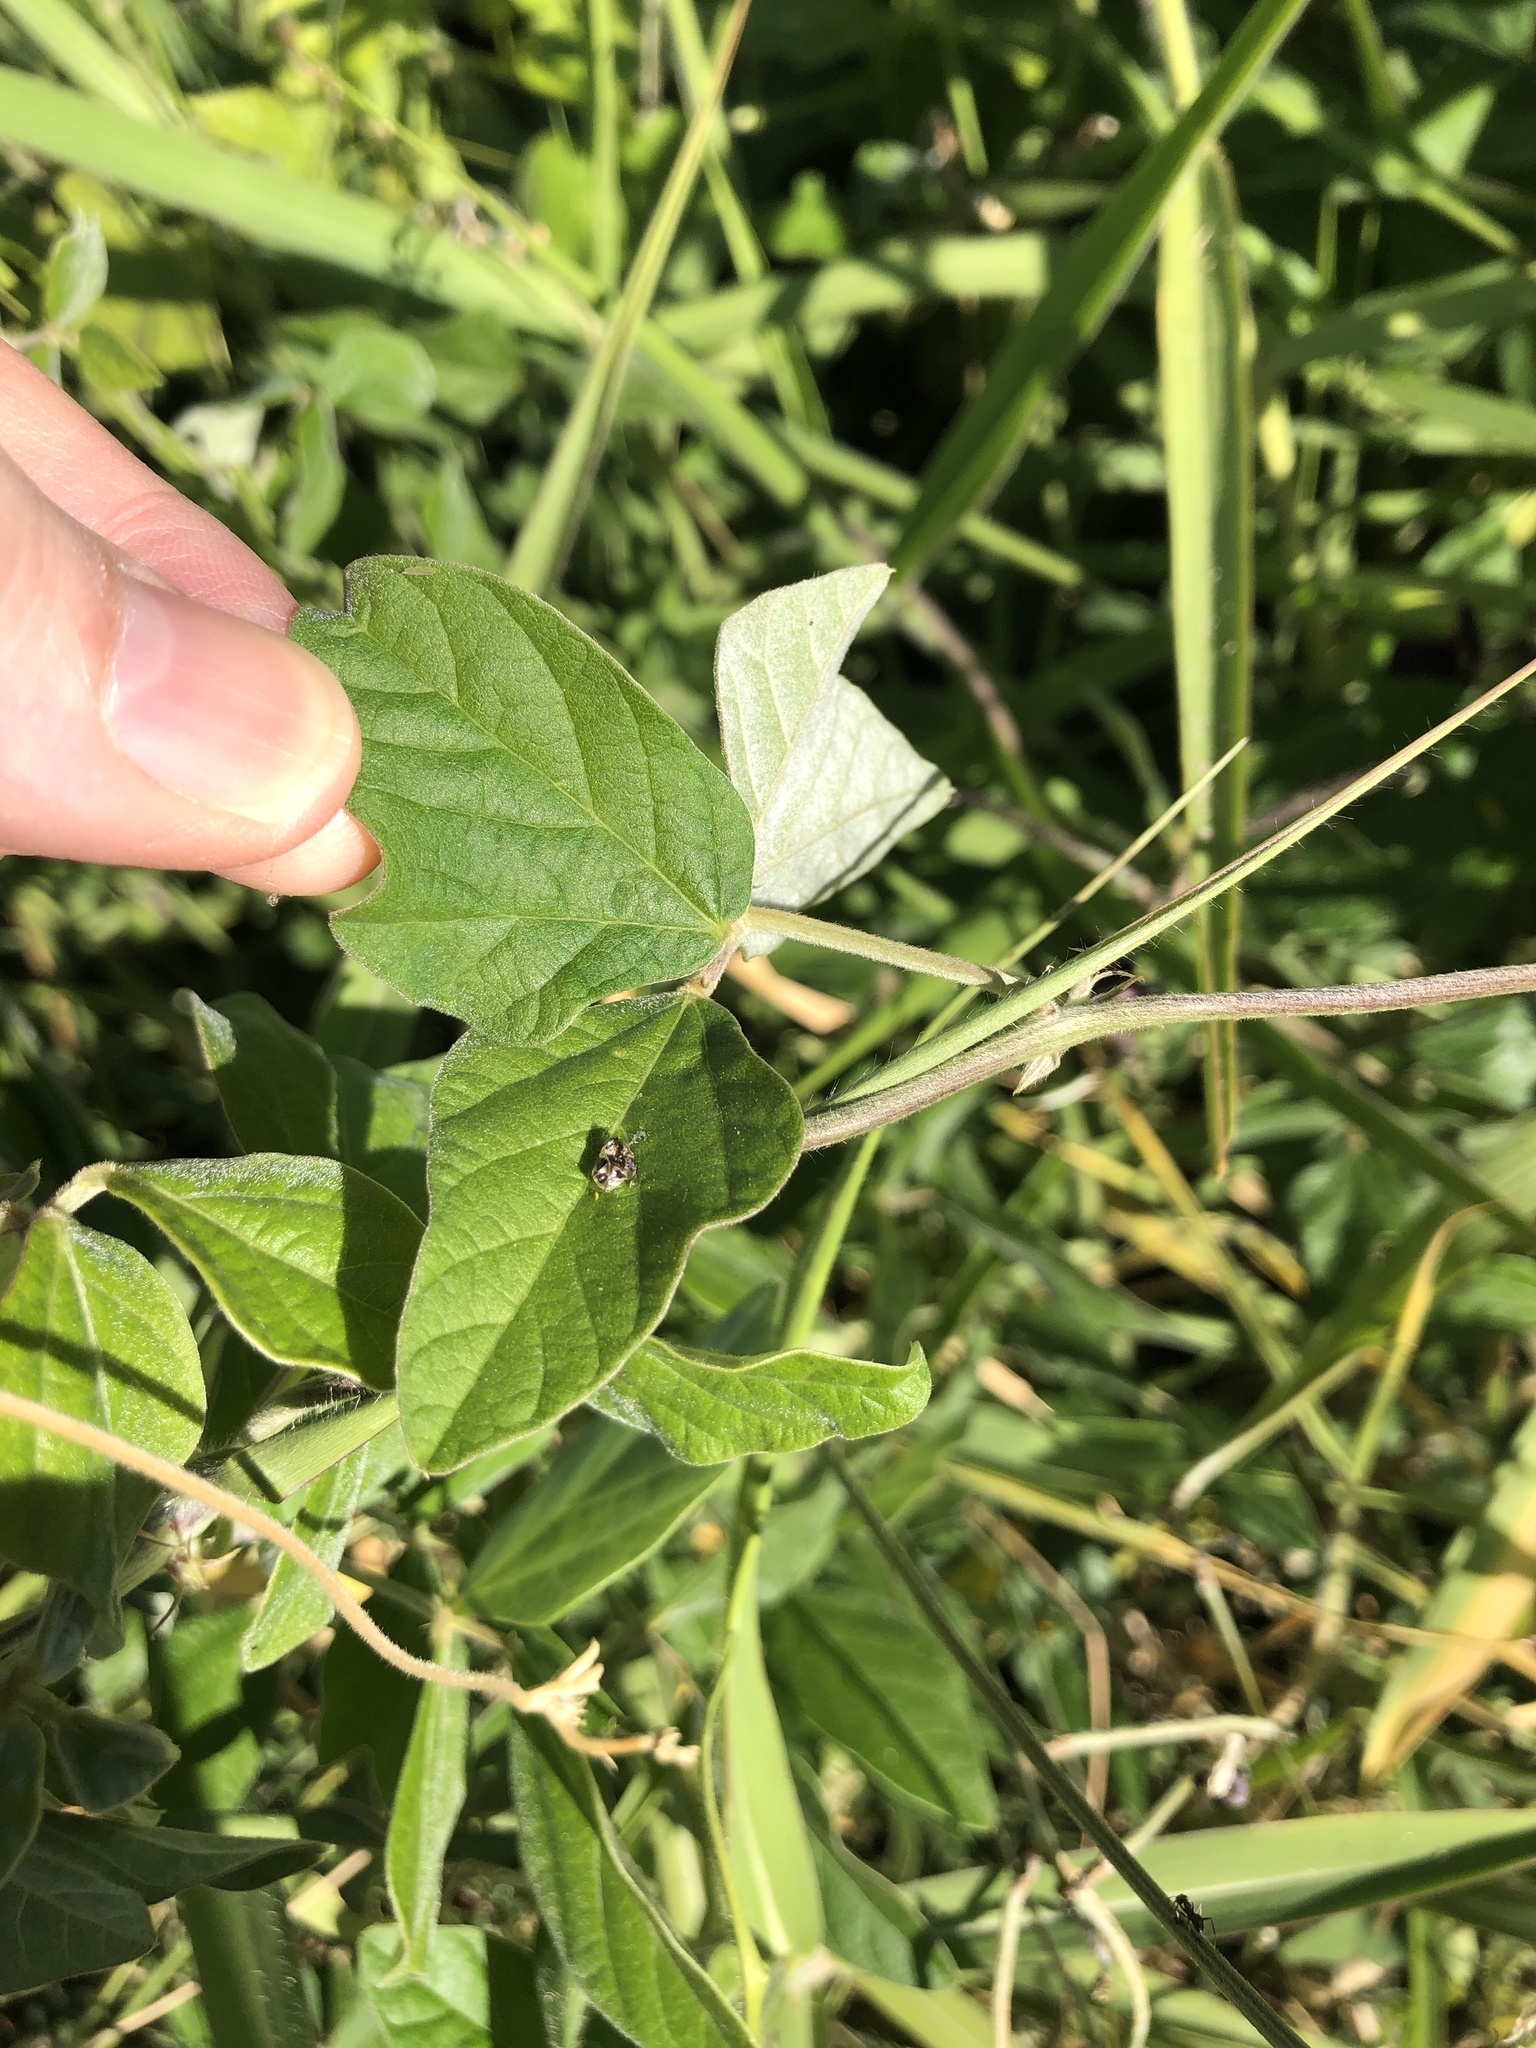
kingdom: Plantae
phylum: Tracheophyta
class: Magnoliopsida
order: Fabales
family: Fabaceae
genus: Macroptilium
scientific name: Macroptilium atropurpureum
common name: Purple bushbean
